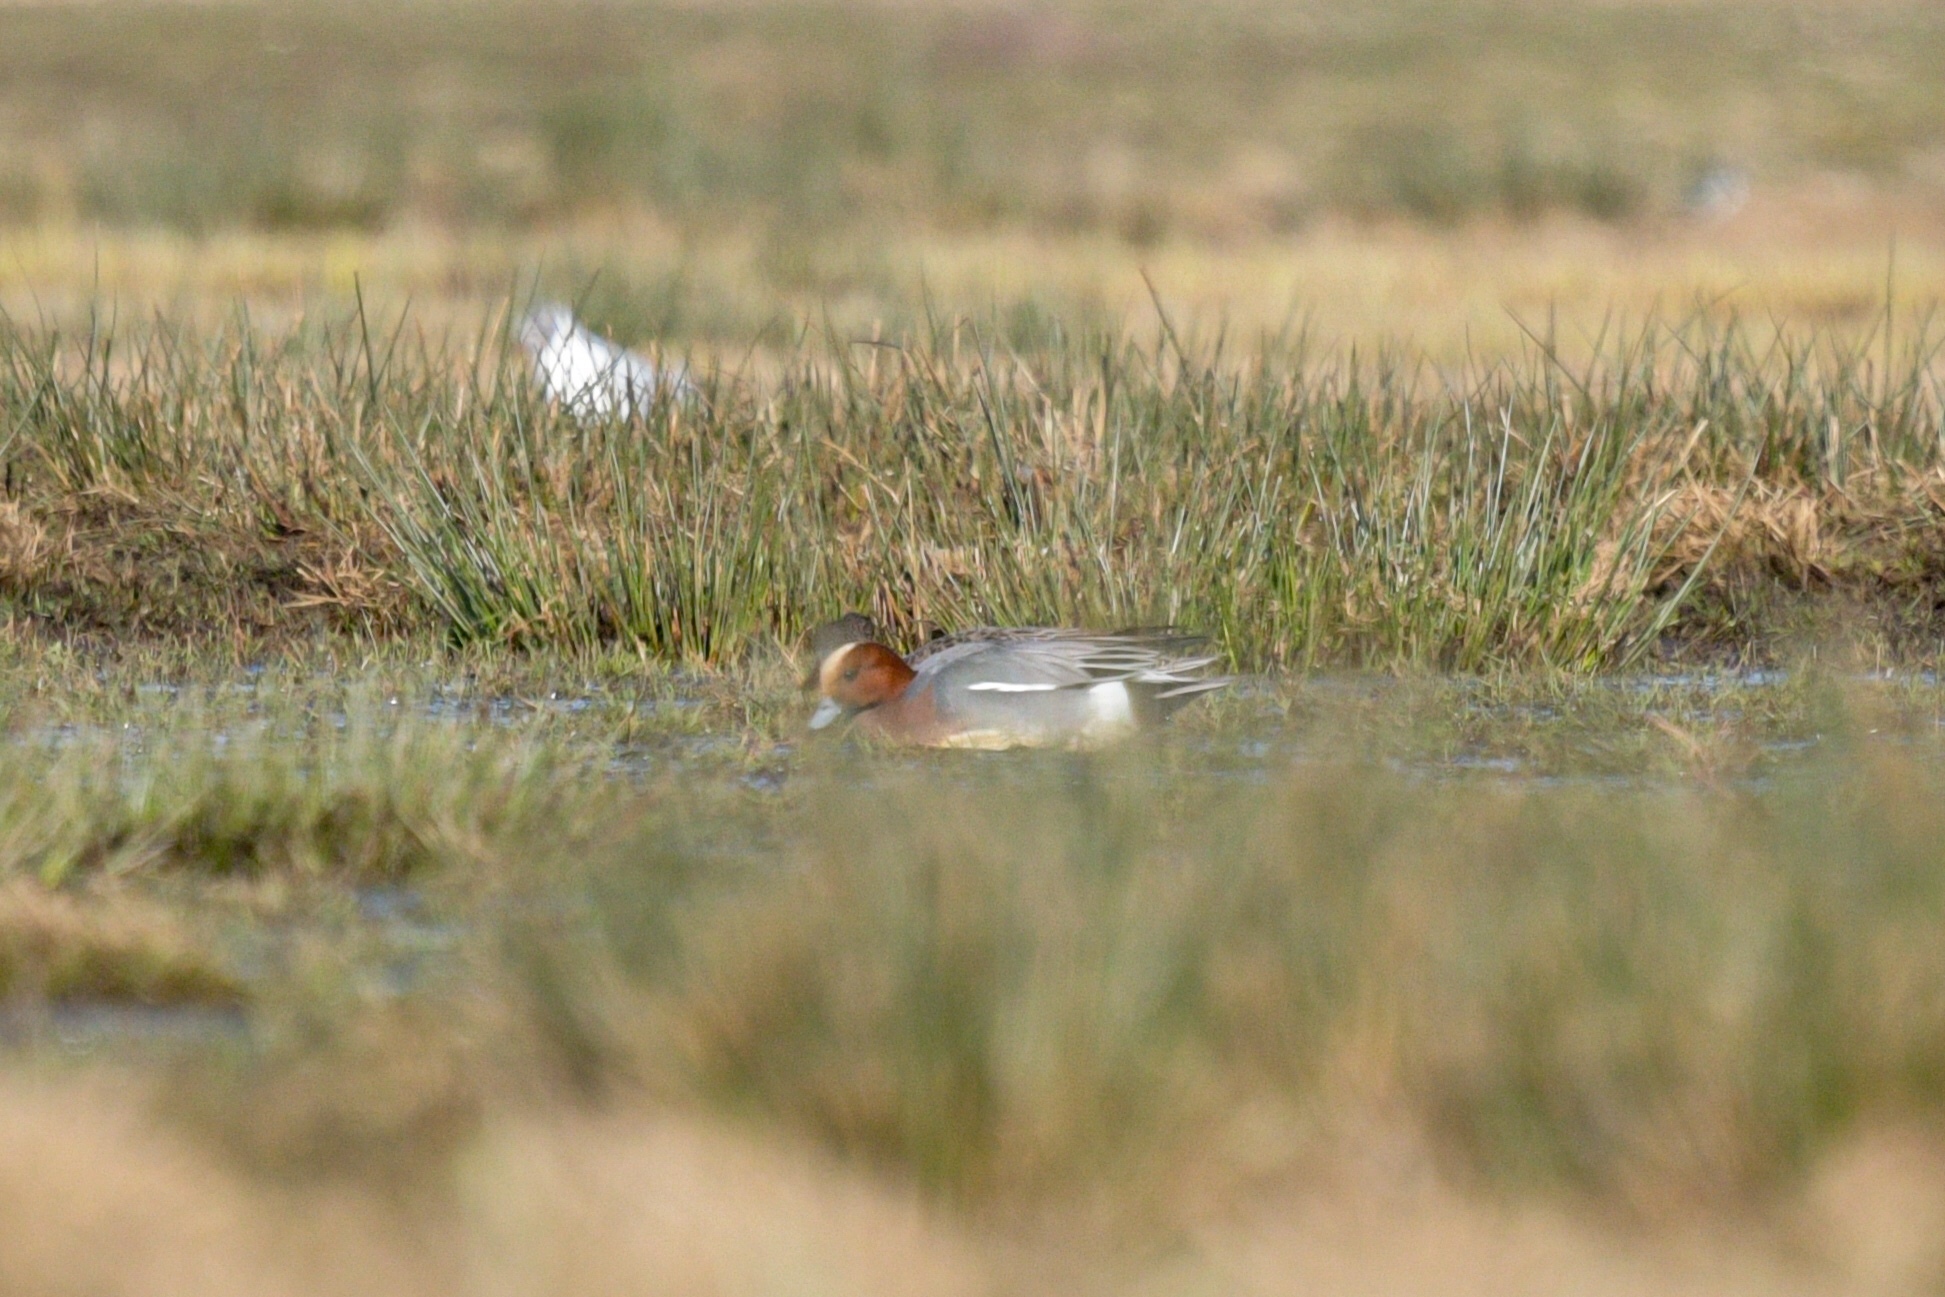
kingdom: Animalia
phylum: Chordata
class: Aves
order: Anseriformes
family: Anatidae
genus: Mareca
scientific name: Mareca penelope
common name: Eurasian wigeon
